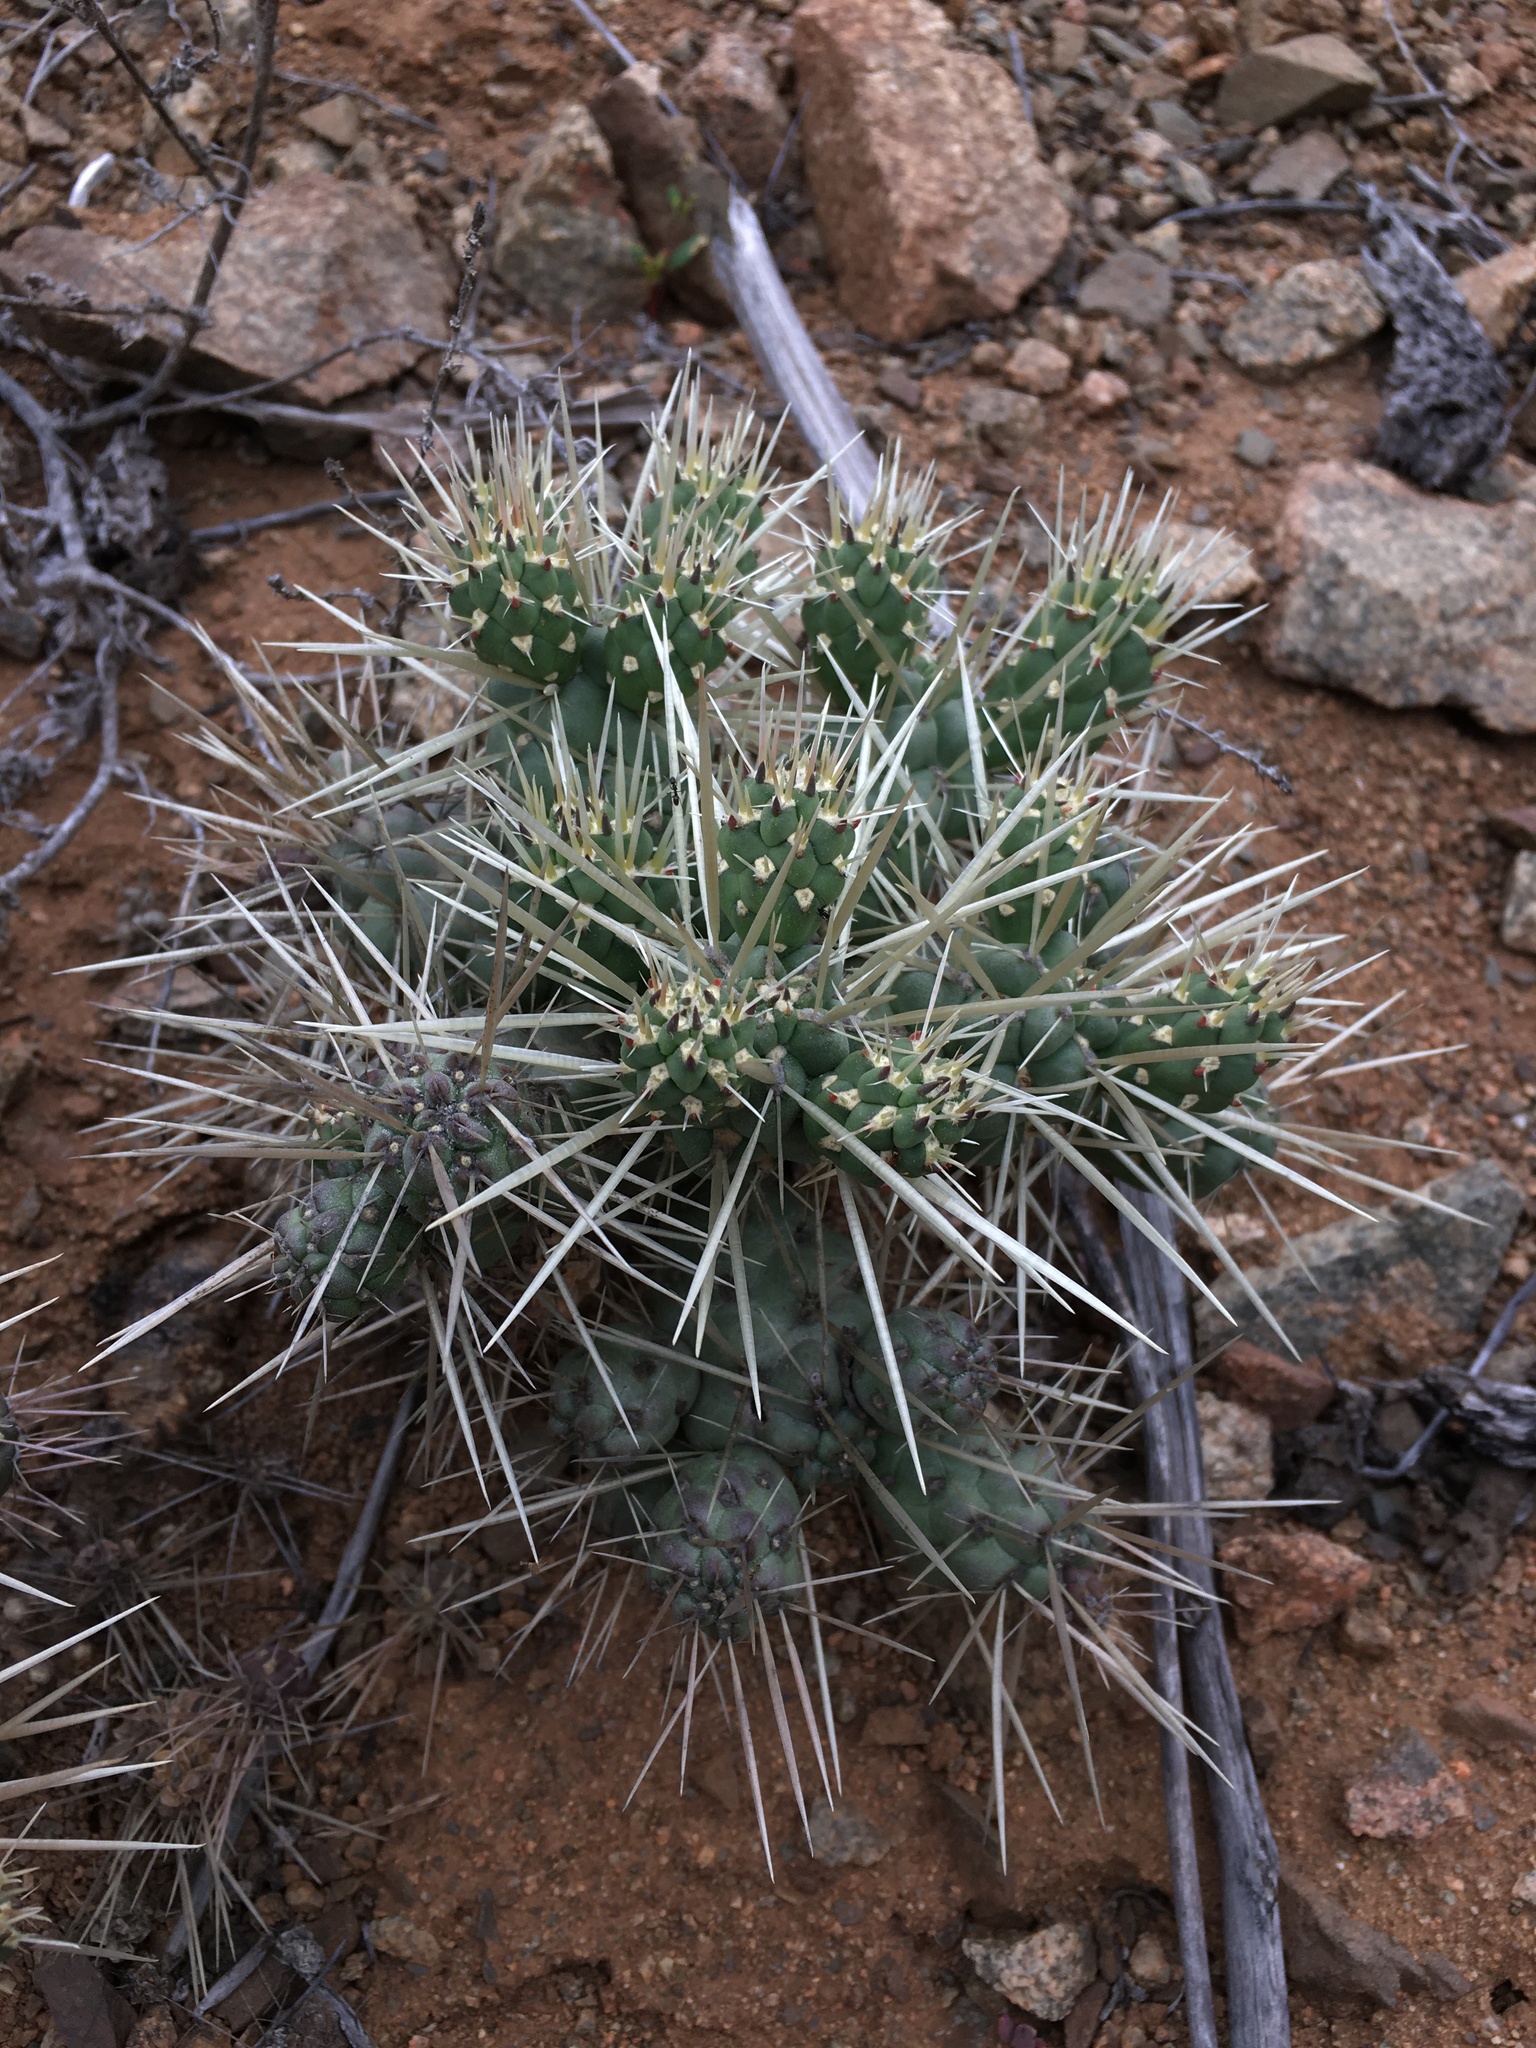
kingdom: Plantae
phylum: Tracheophyta
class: Magnoliopsida
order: Caryophyllales
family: Cactaceae
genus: Cylindropuntia
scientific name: Cylindropuntia tunicata
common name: Sheathed cholla
